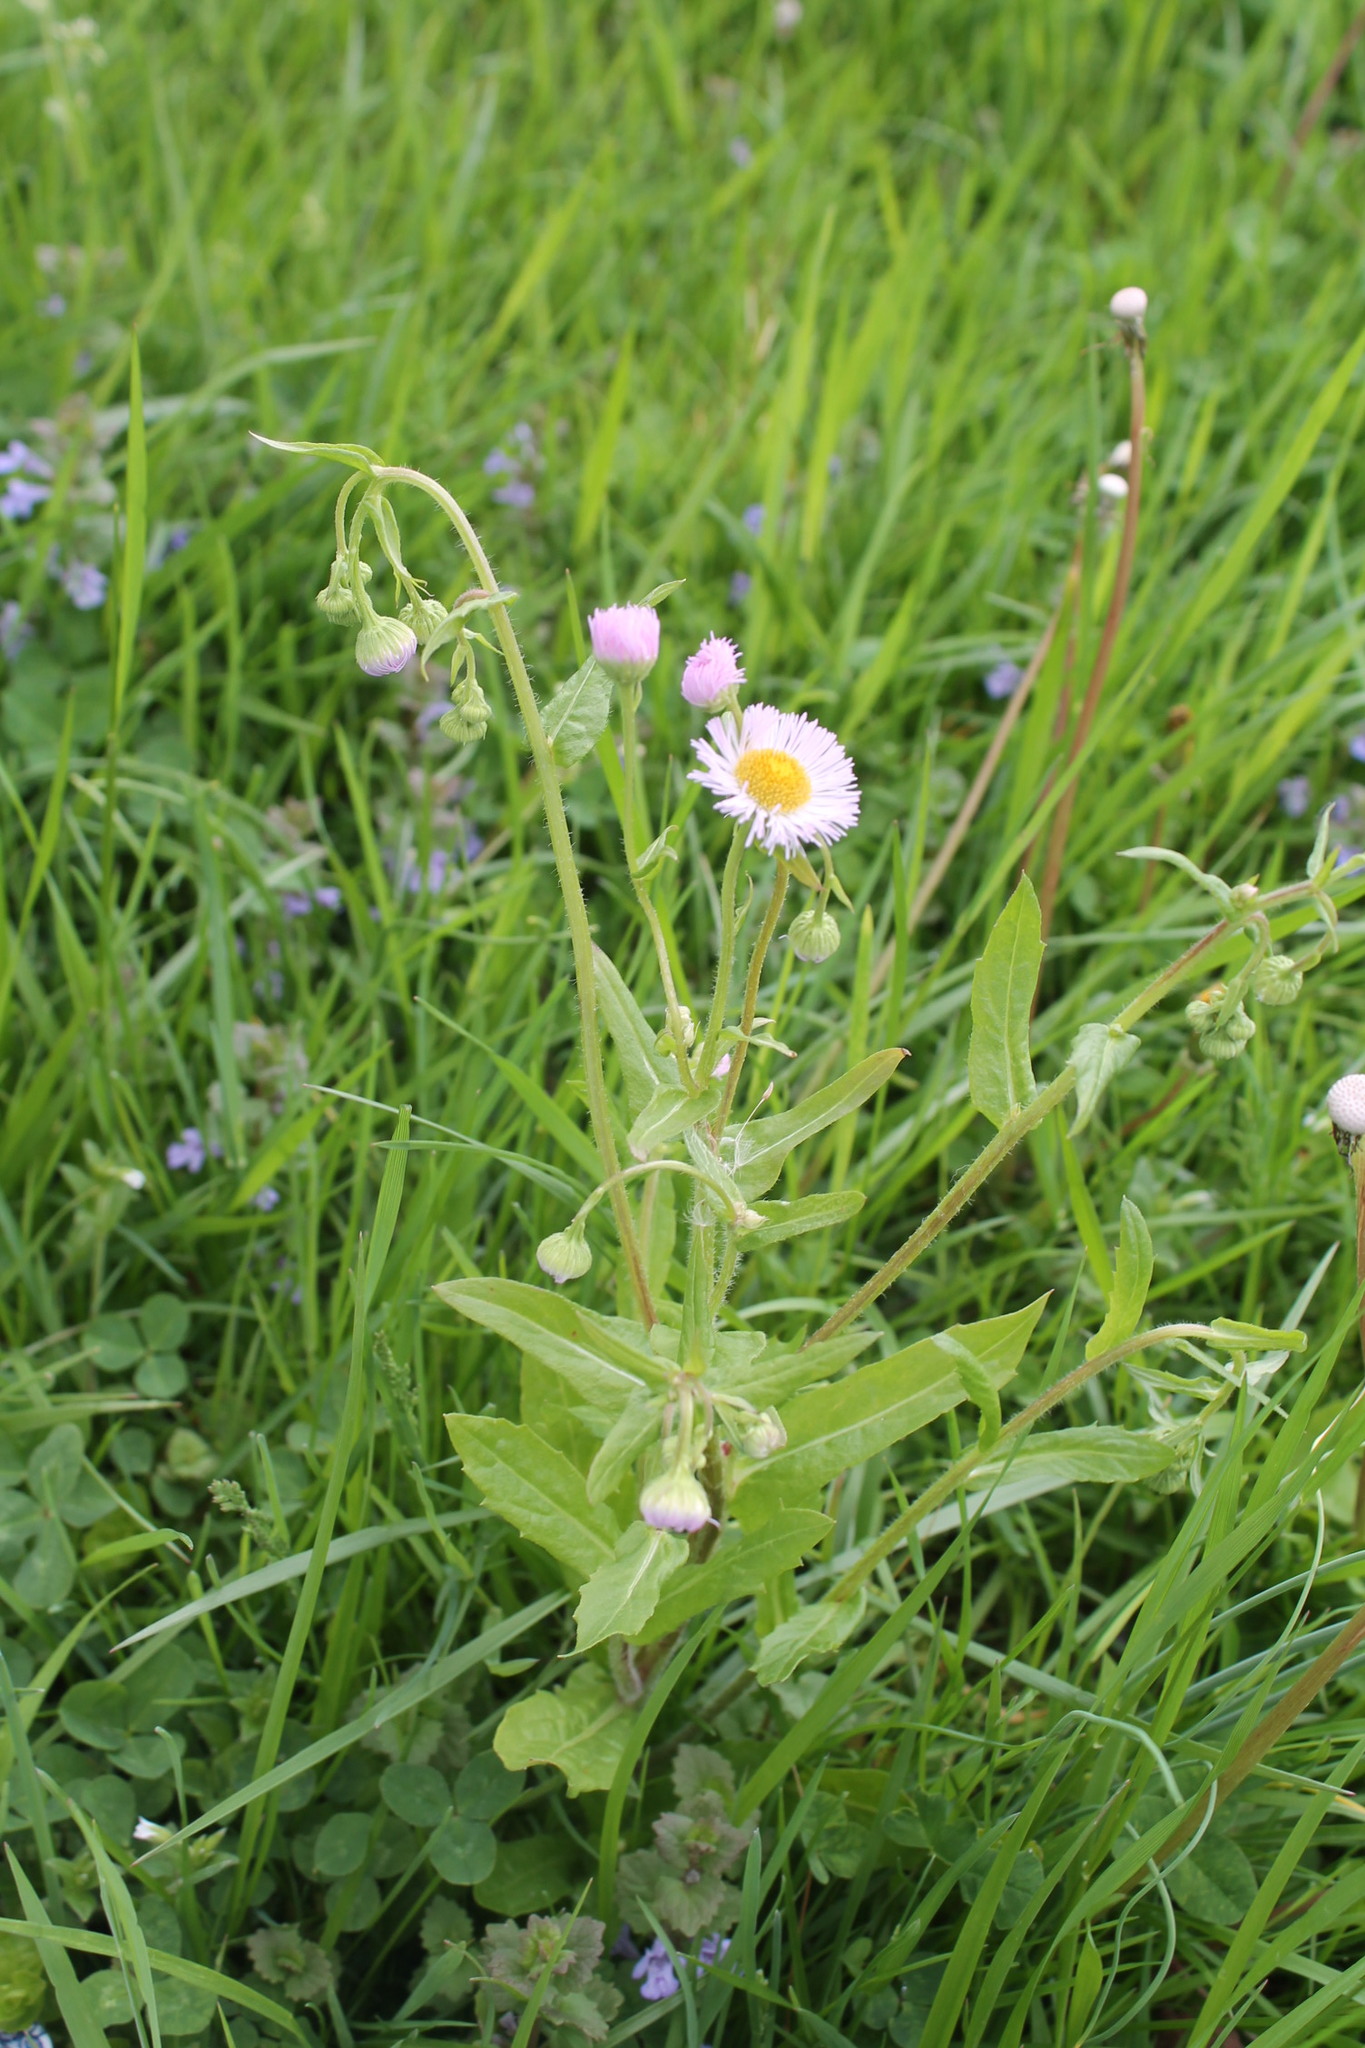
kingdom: Plantae
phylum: Tracheophyta
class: Magnoliopsida
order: Asterales
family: Asteraceae
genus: Erigeron
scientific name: Erigeron philadelphicus
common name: Robin's-plantain
